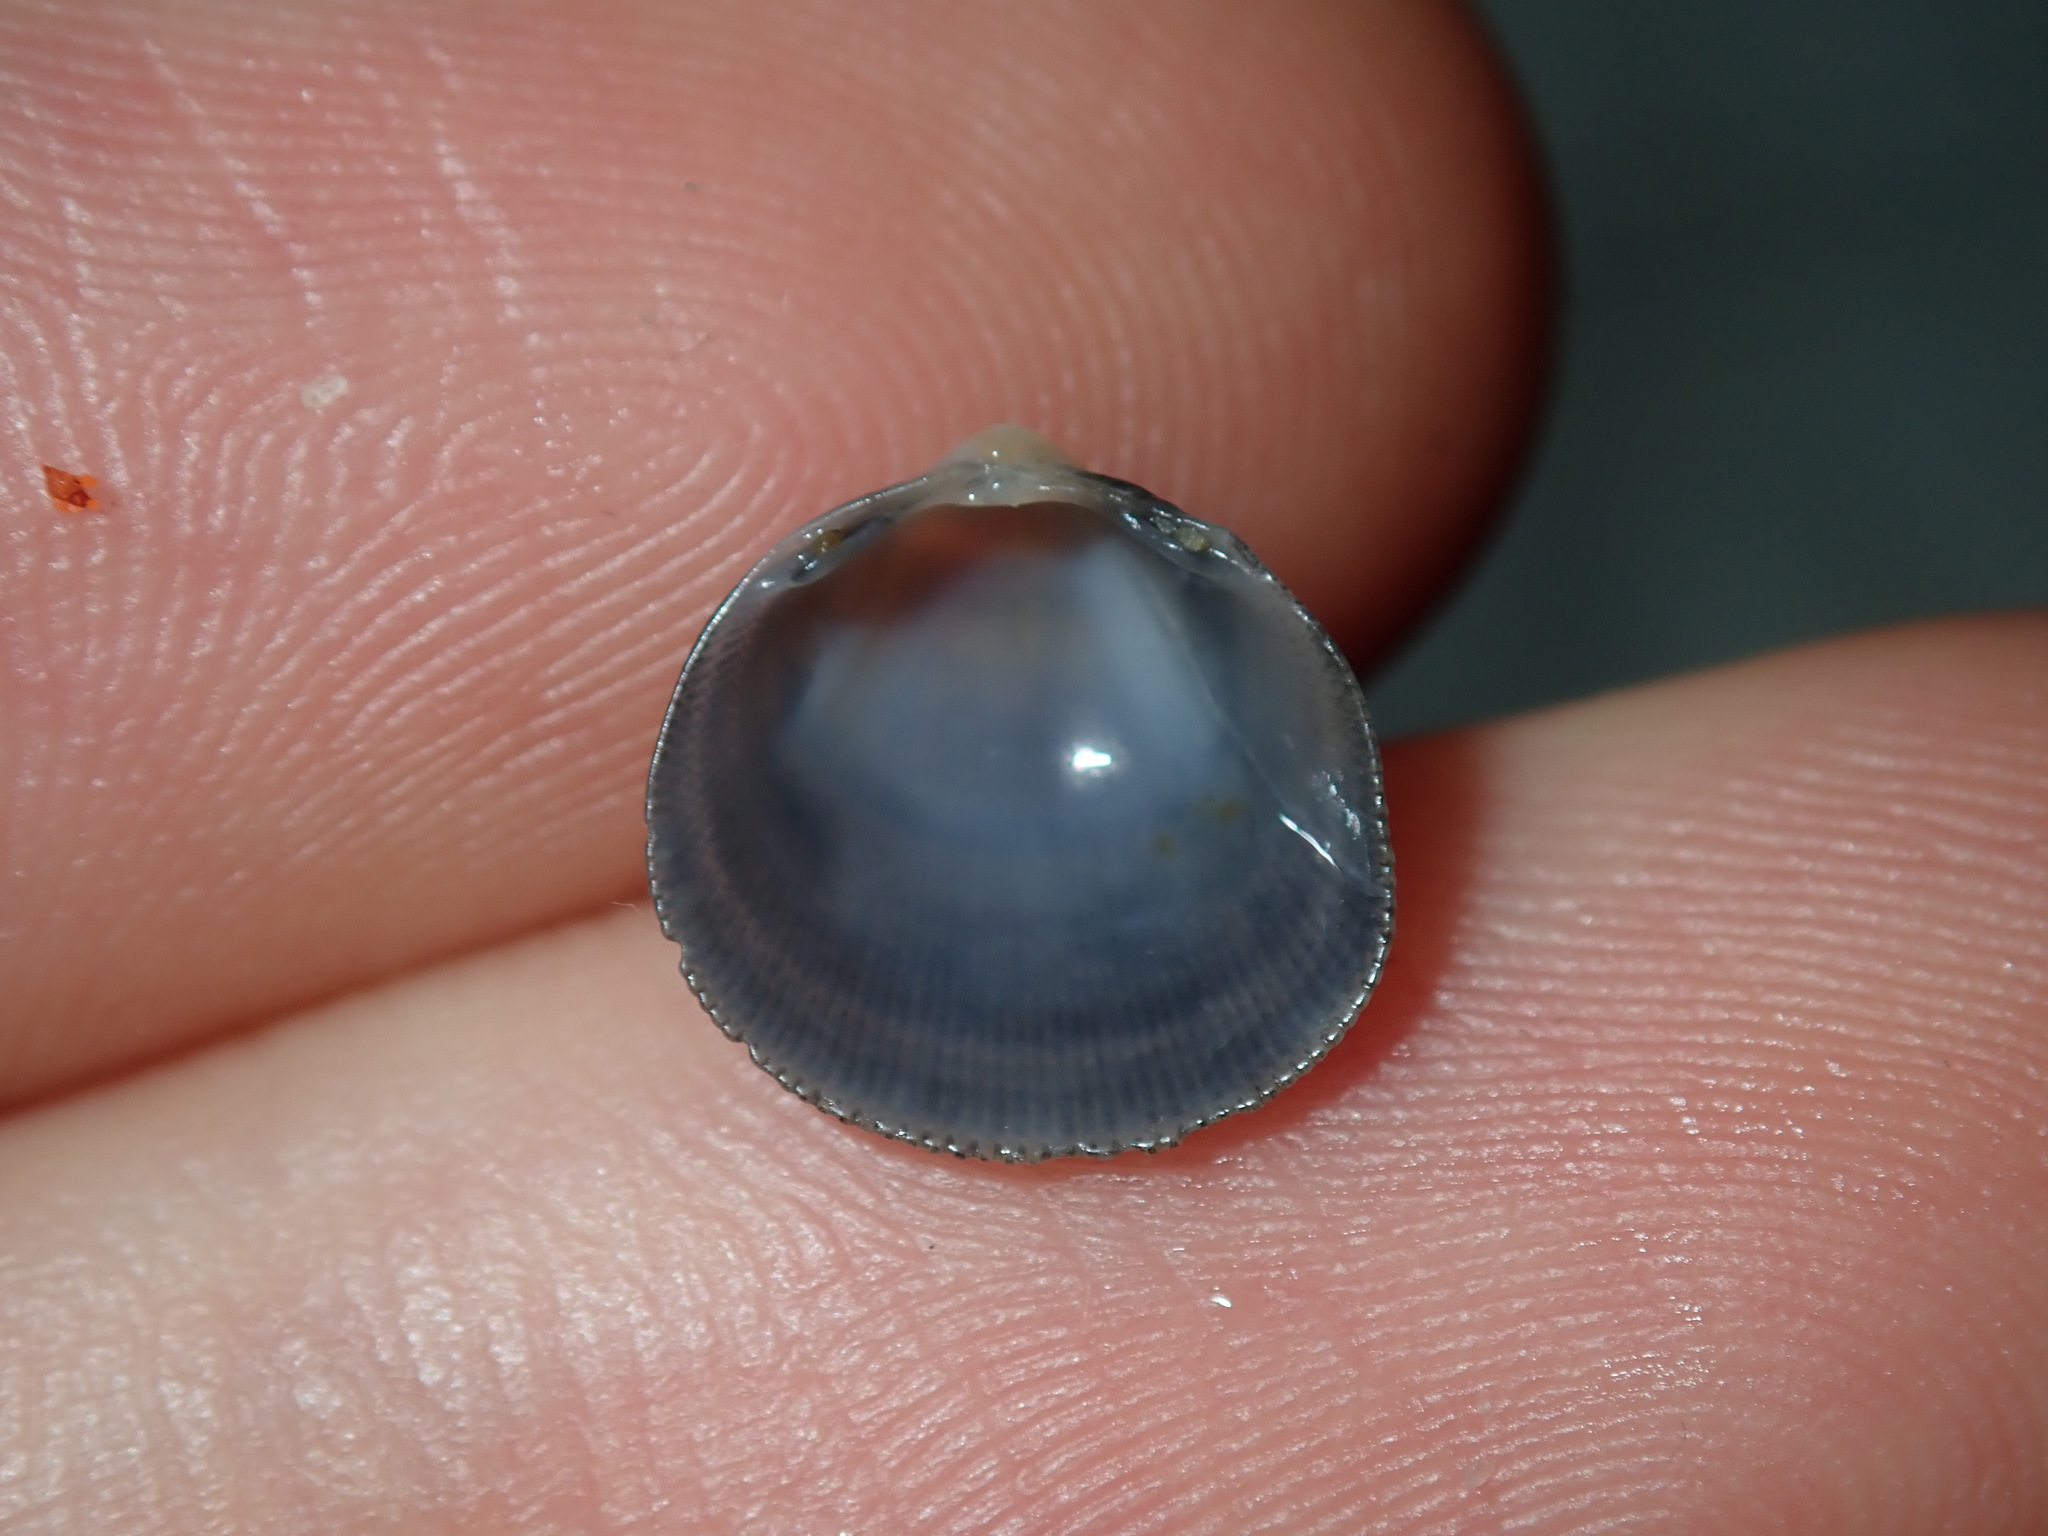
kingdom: Animalia
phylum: Mollusca
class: Bivalvia
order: Cardiida
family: Cardiidae
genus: Fulvia
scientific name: Fulvia tenuicostata
